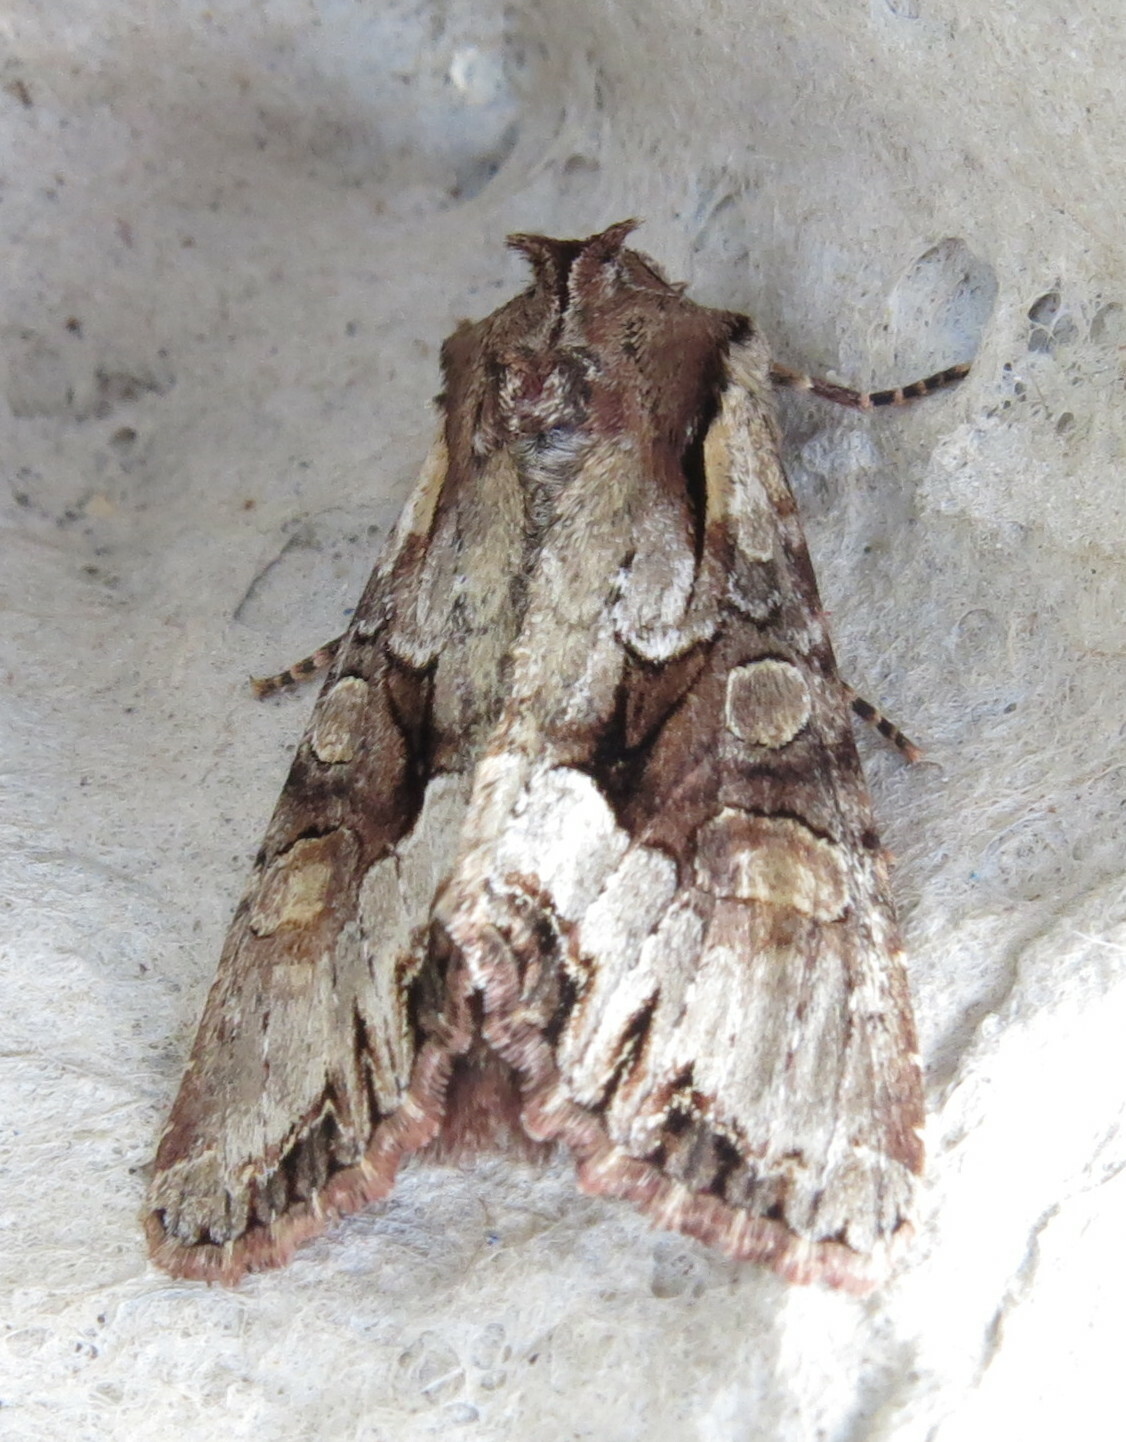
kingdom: Animalia
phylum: Arthropoda
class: Insecta
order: Lepidoptera
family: Noctuidae
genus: Lacanobia
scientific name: Lacanobia w-latinum
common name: Light brocade
